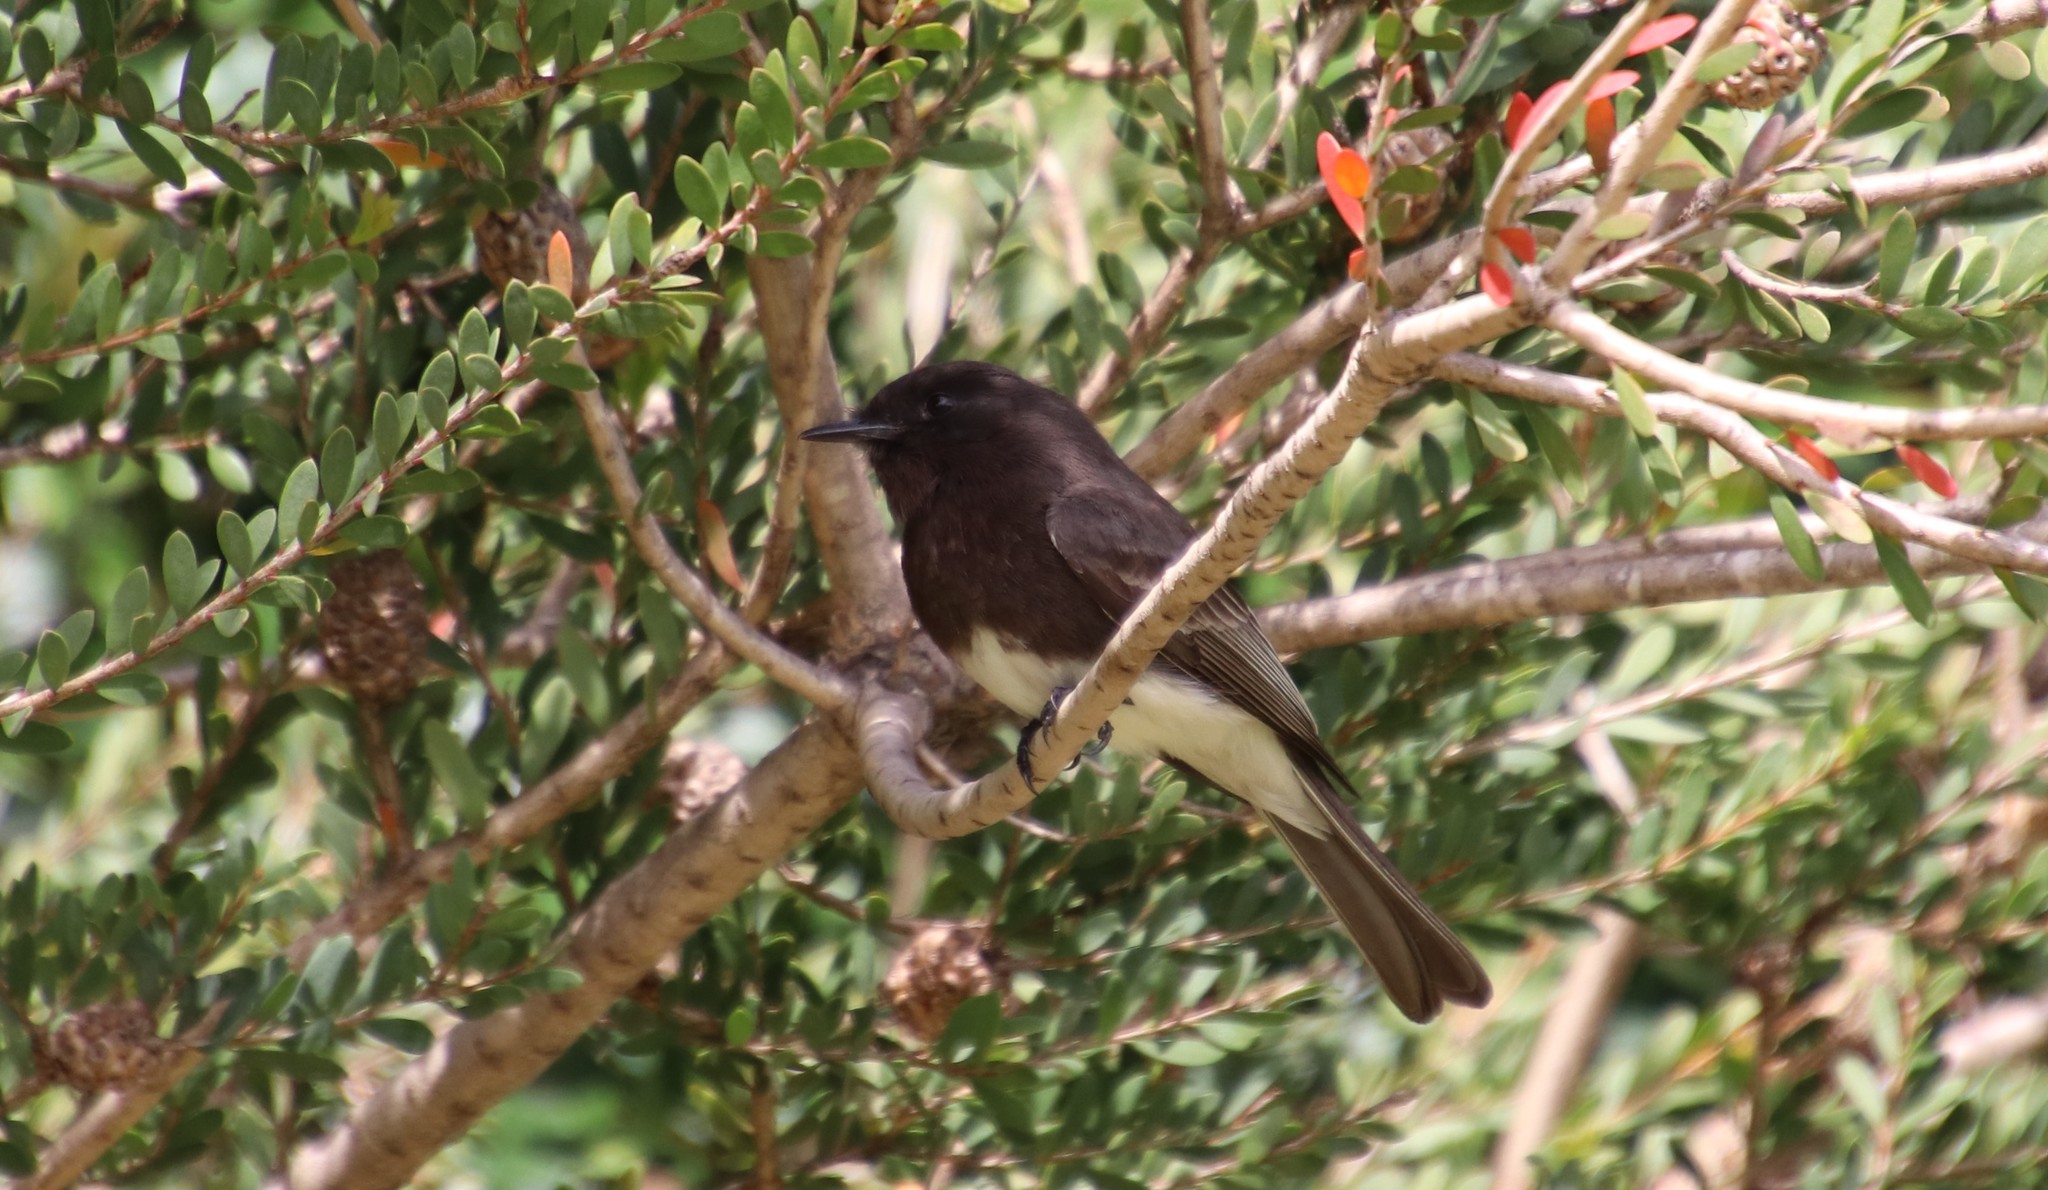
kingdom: Animalia
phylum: Chordata
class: Aves
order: Passeriformes
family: Tyrannidae
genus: Sayornis
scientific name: Sayornis nigricans
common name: Black phoebe
